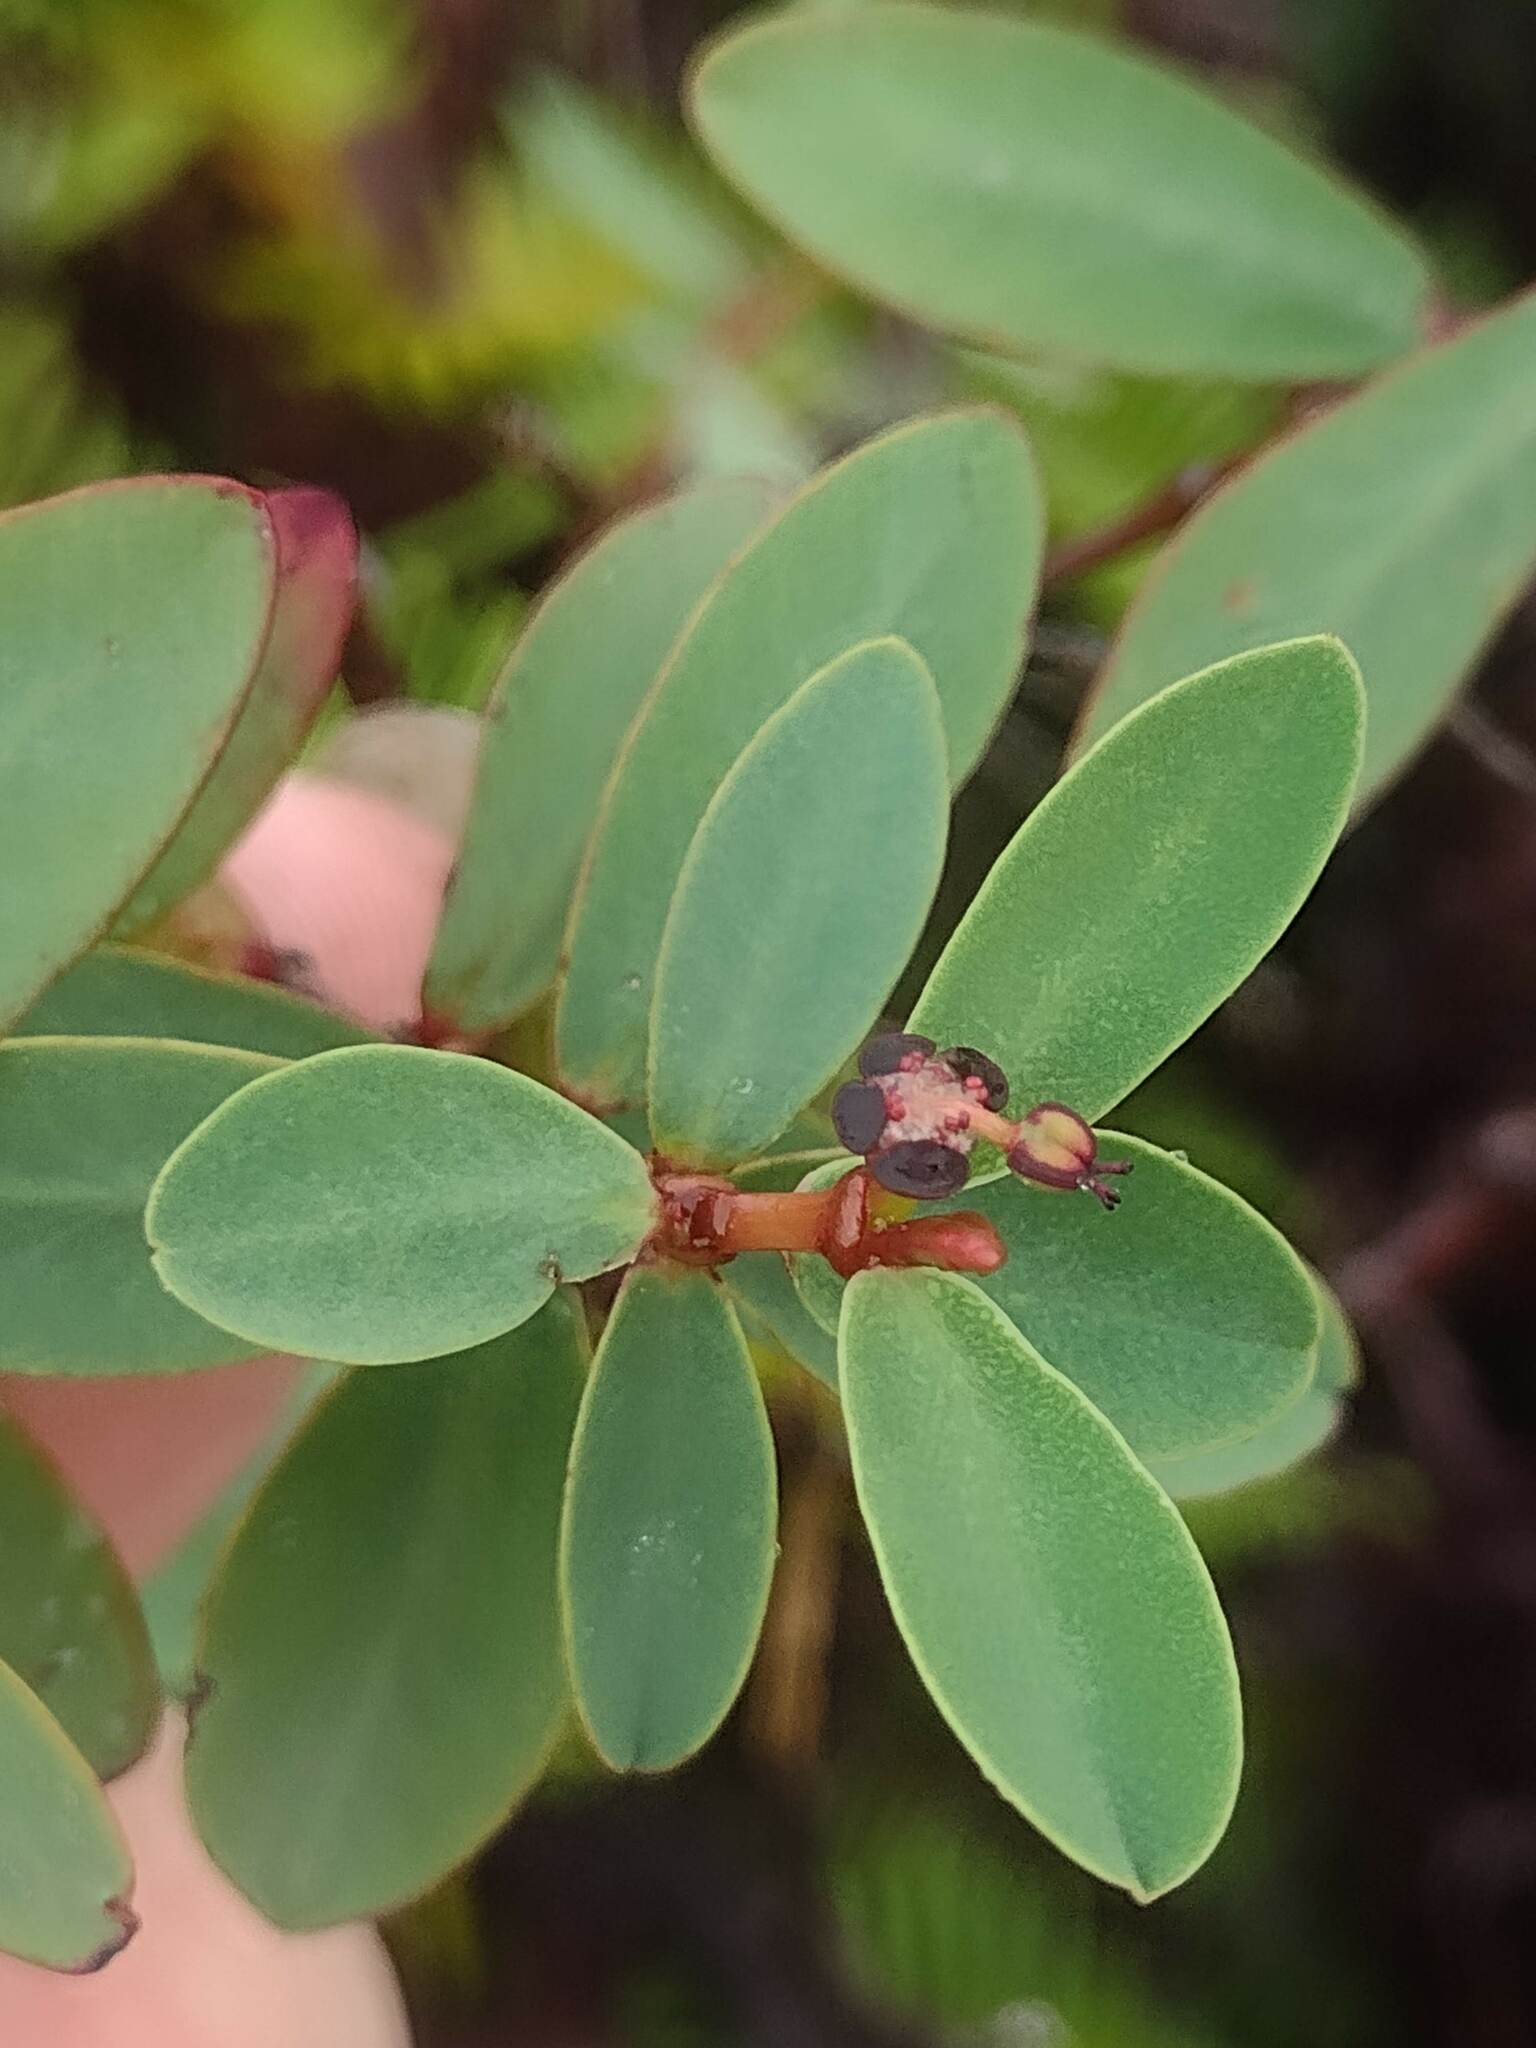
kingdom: Plantae
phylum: Tracheophyta
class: Magnoliopsida
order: Malpighiales
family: Euphorbiaceae
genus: Euphorbia
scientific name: Euphorbia sparsiflora
